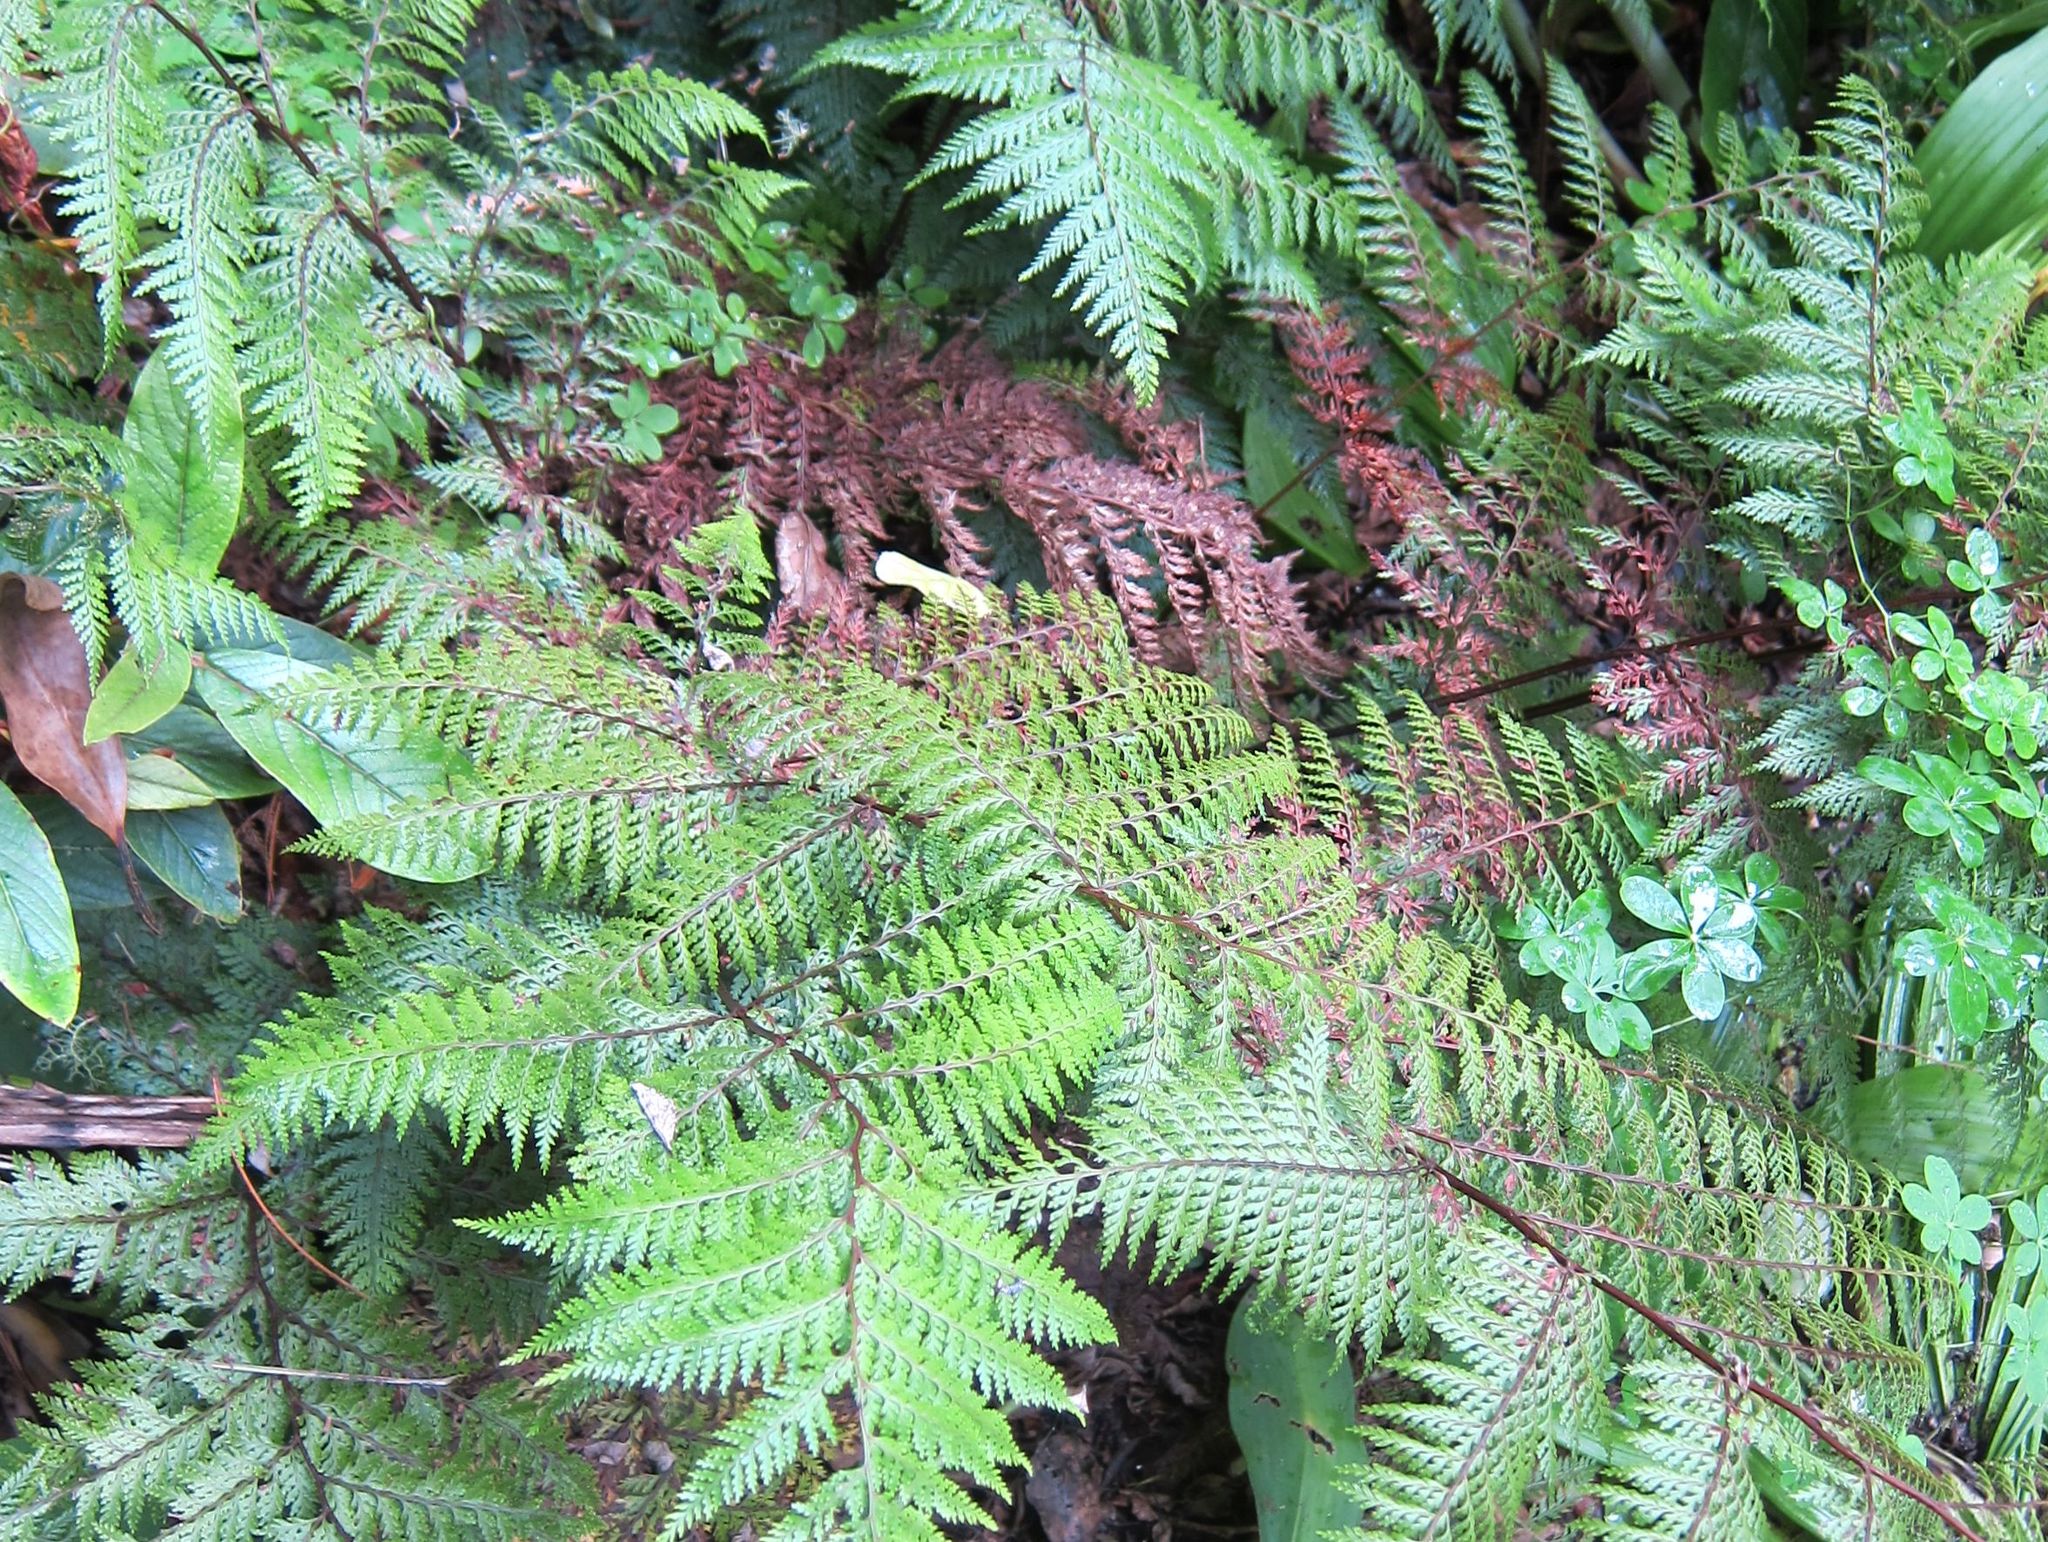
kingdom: Plantae
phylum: Tracheophyta
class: Polypodiopsida
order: Polypodiales
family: Dennstaedtiaceae
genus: Dennstaedtia
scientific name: Dennstaedtia novae-zelandiae
